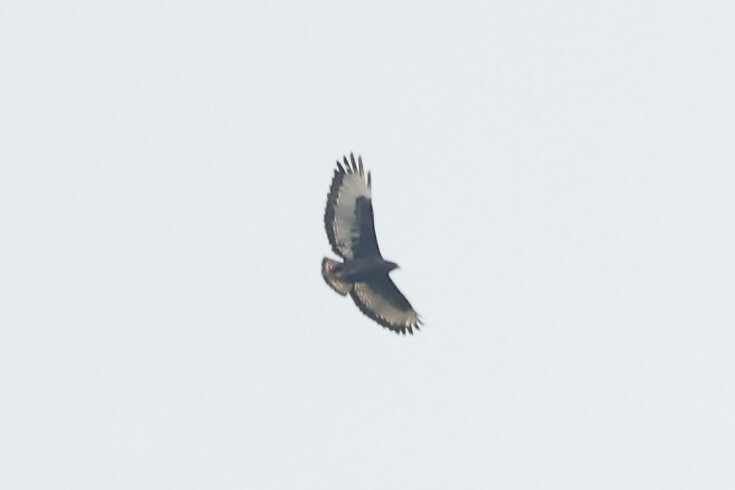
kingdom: Animalia
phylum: Chordata
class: Aves
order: Accipitriformes
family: Accipitridae
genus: Buteo
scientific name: Buteo augur
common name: Augur buzzard
